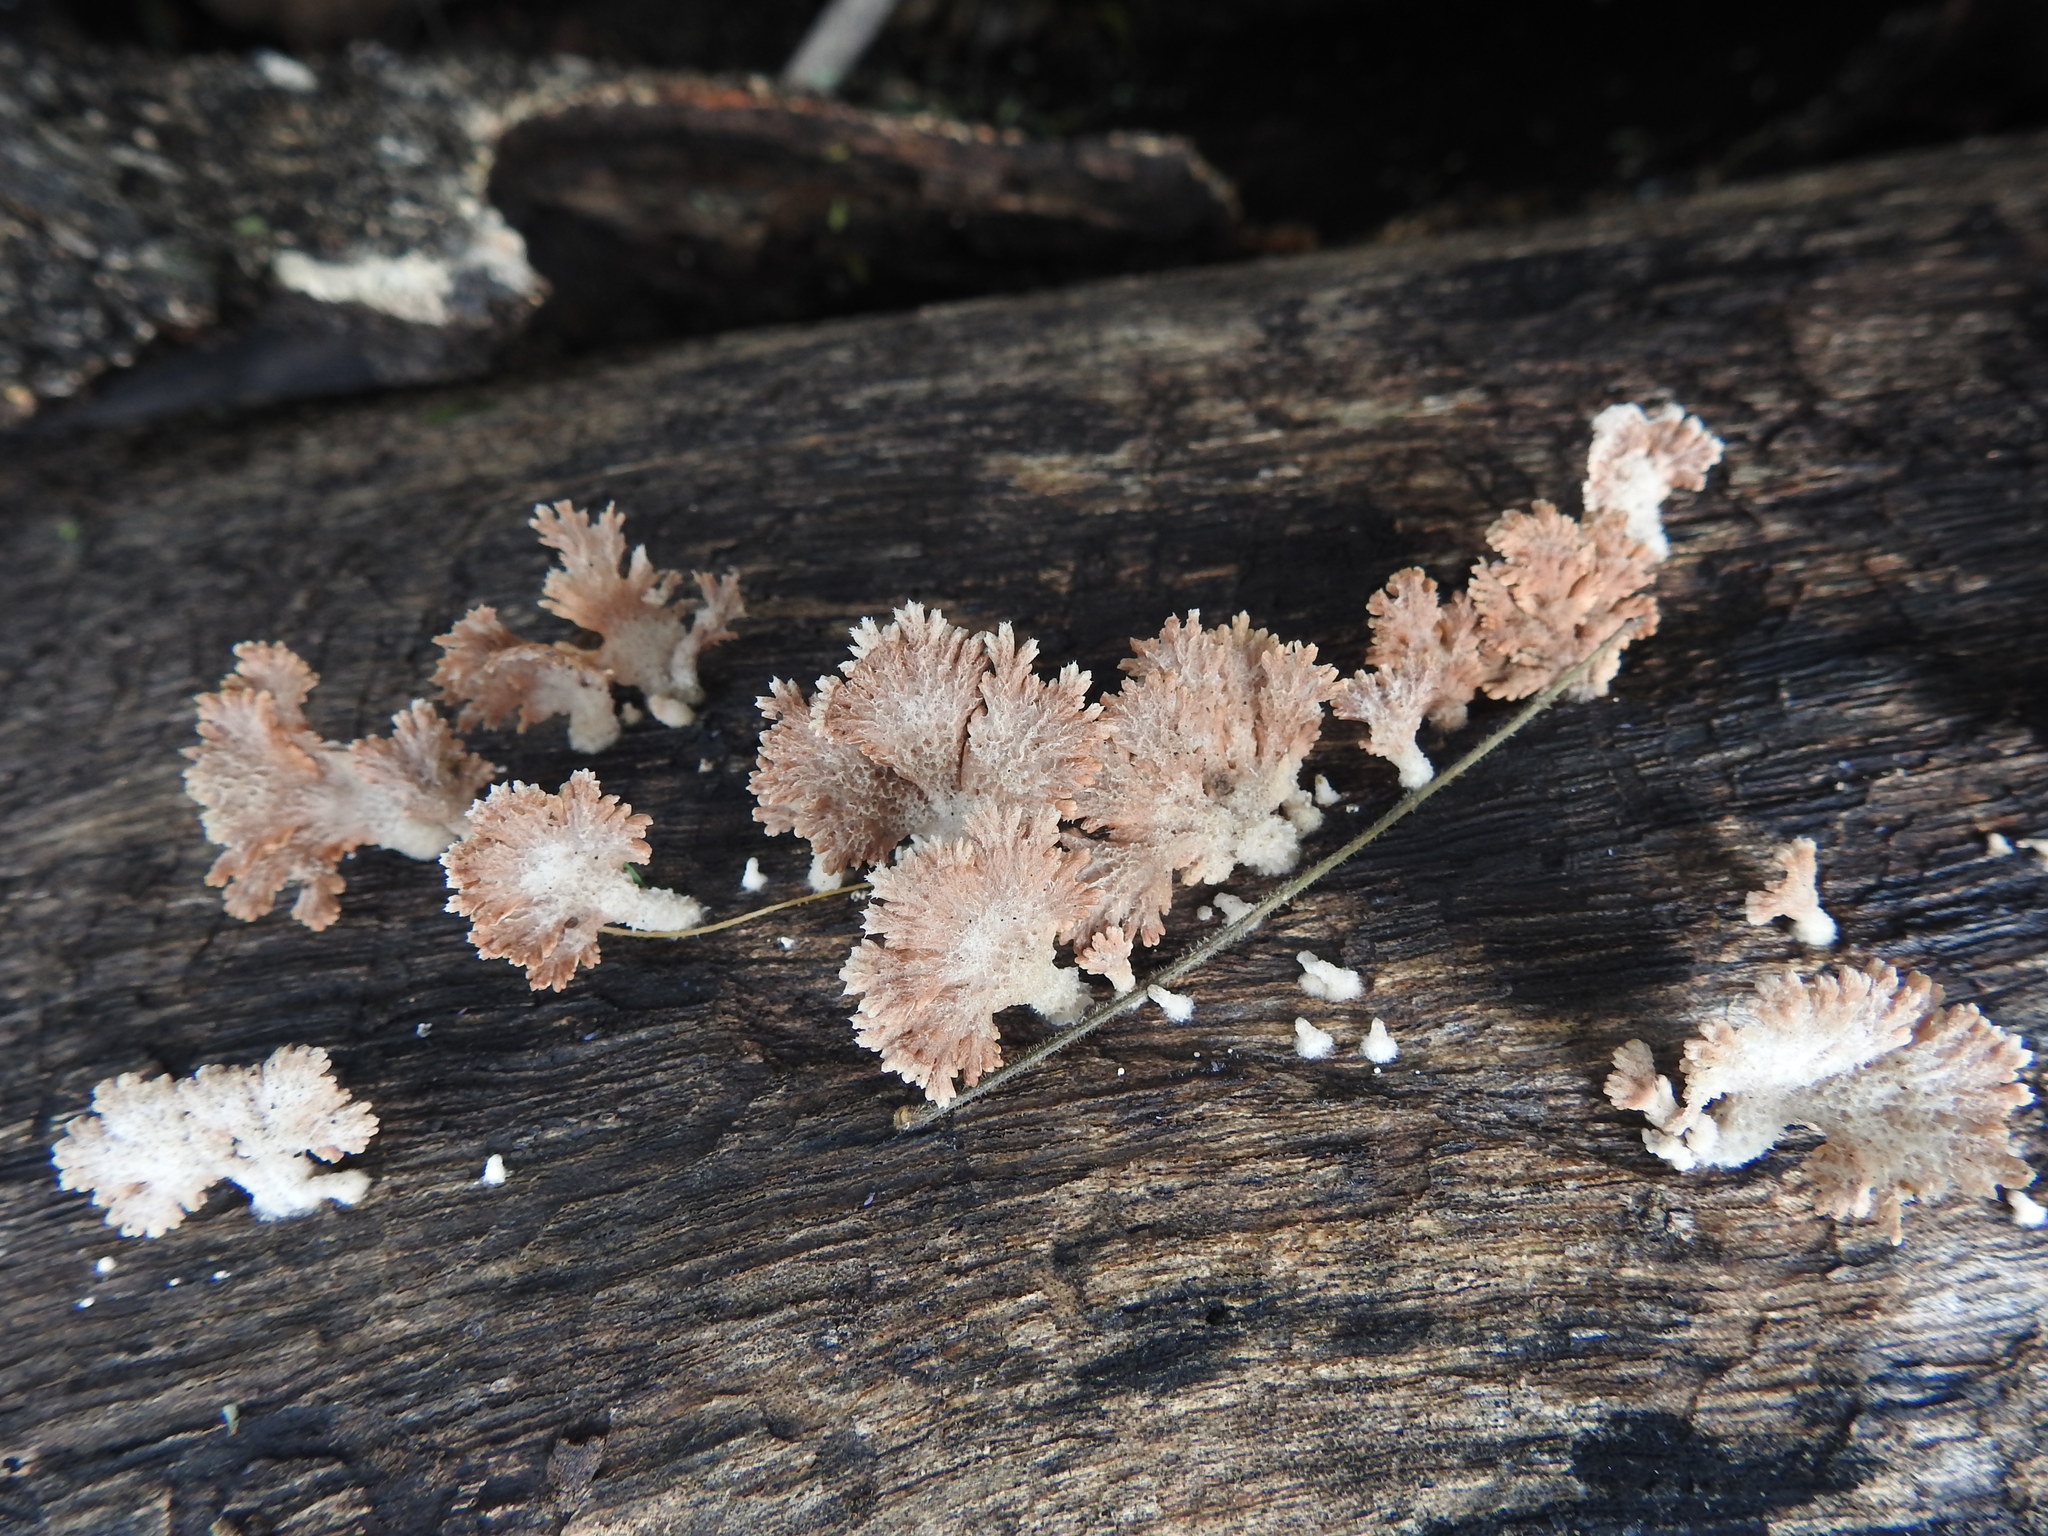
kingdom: Fungi
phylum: Basidiomycota
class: Agaricomycetes
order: Agaricales
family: Schizophyllaceae
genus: Schizophyllum
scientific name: Schizophyllum commune
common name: Common porecrust
